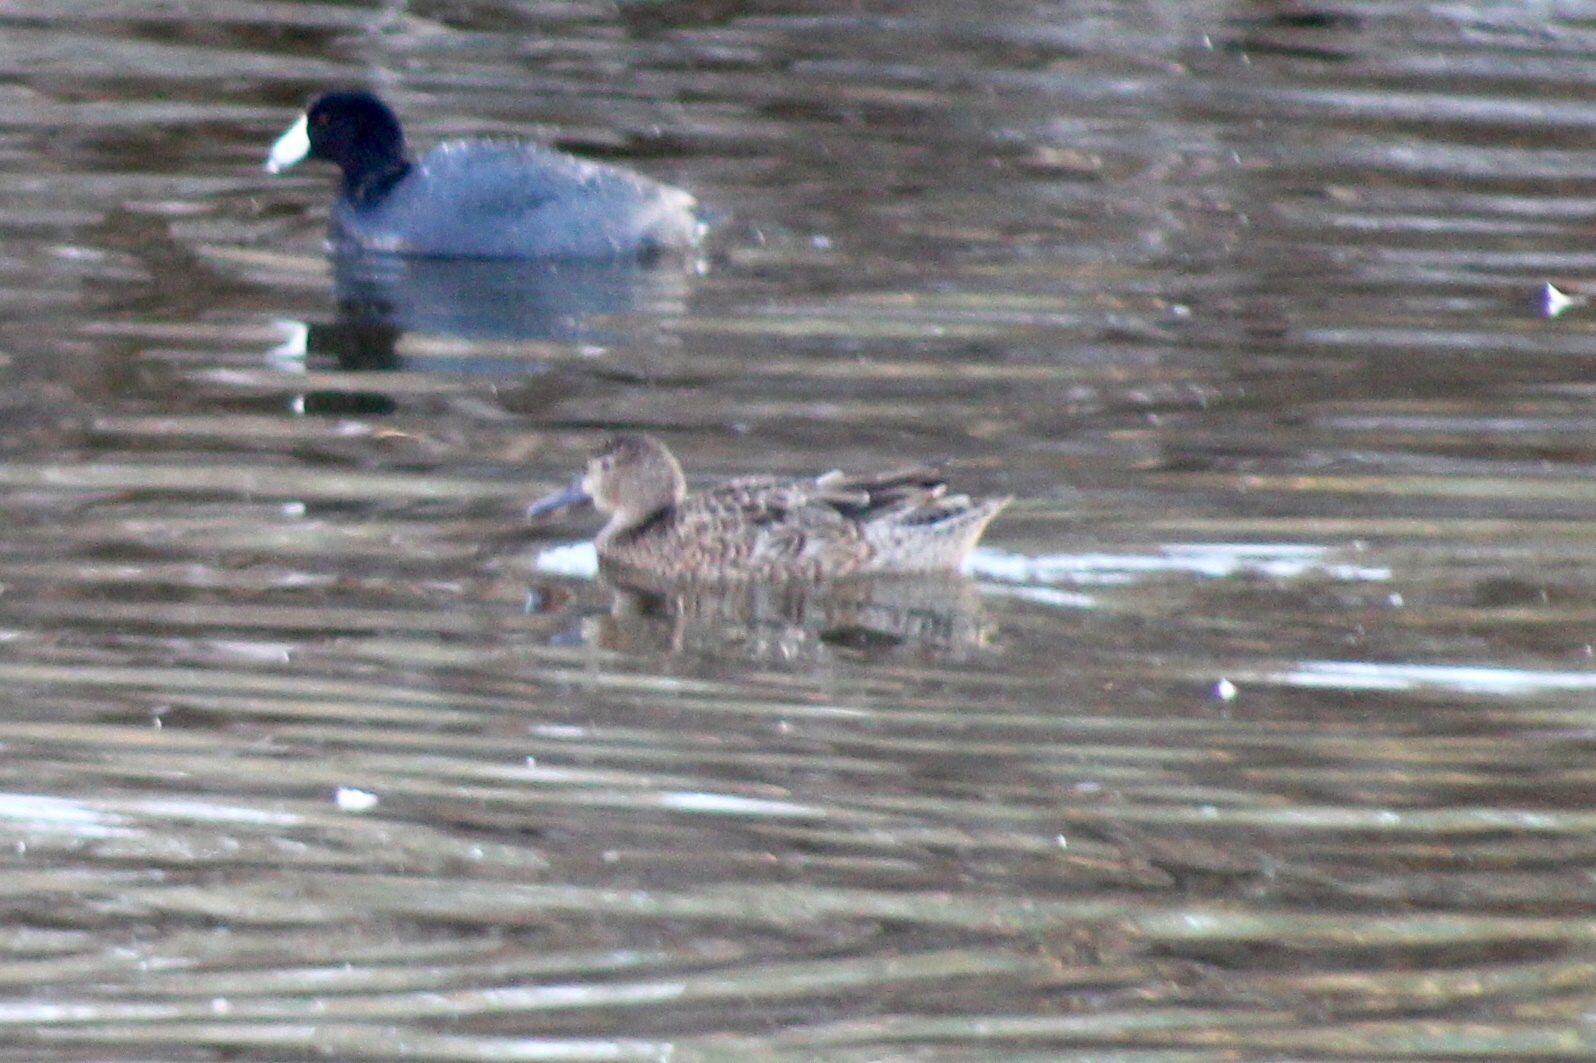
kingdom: Animalia
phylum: Chordata
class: Aves
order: Anseriformes
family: Anatidae
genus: Spatula
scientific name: Spatula discors
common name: Blue-winged teal
